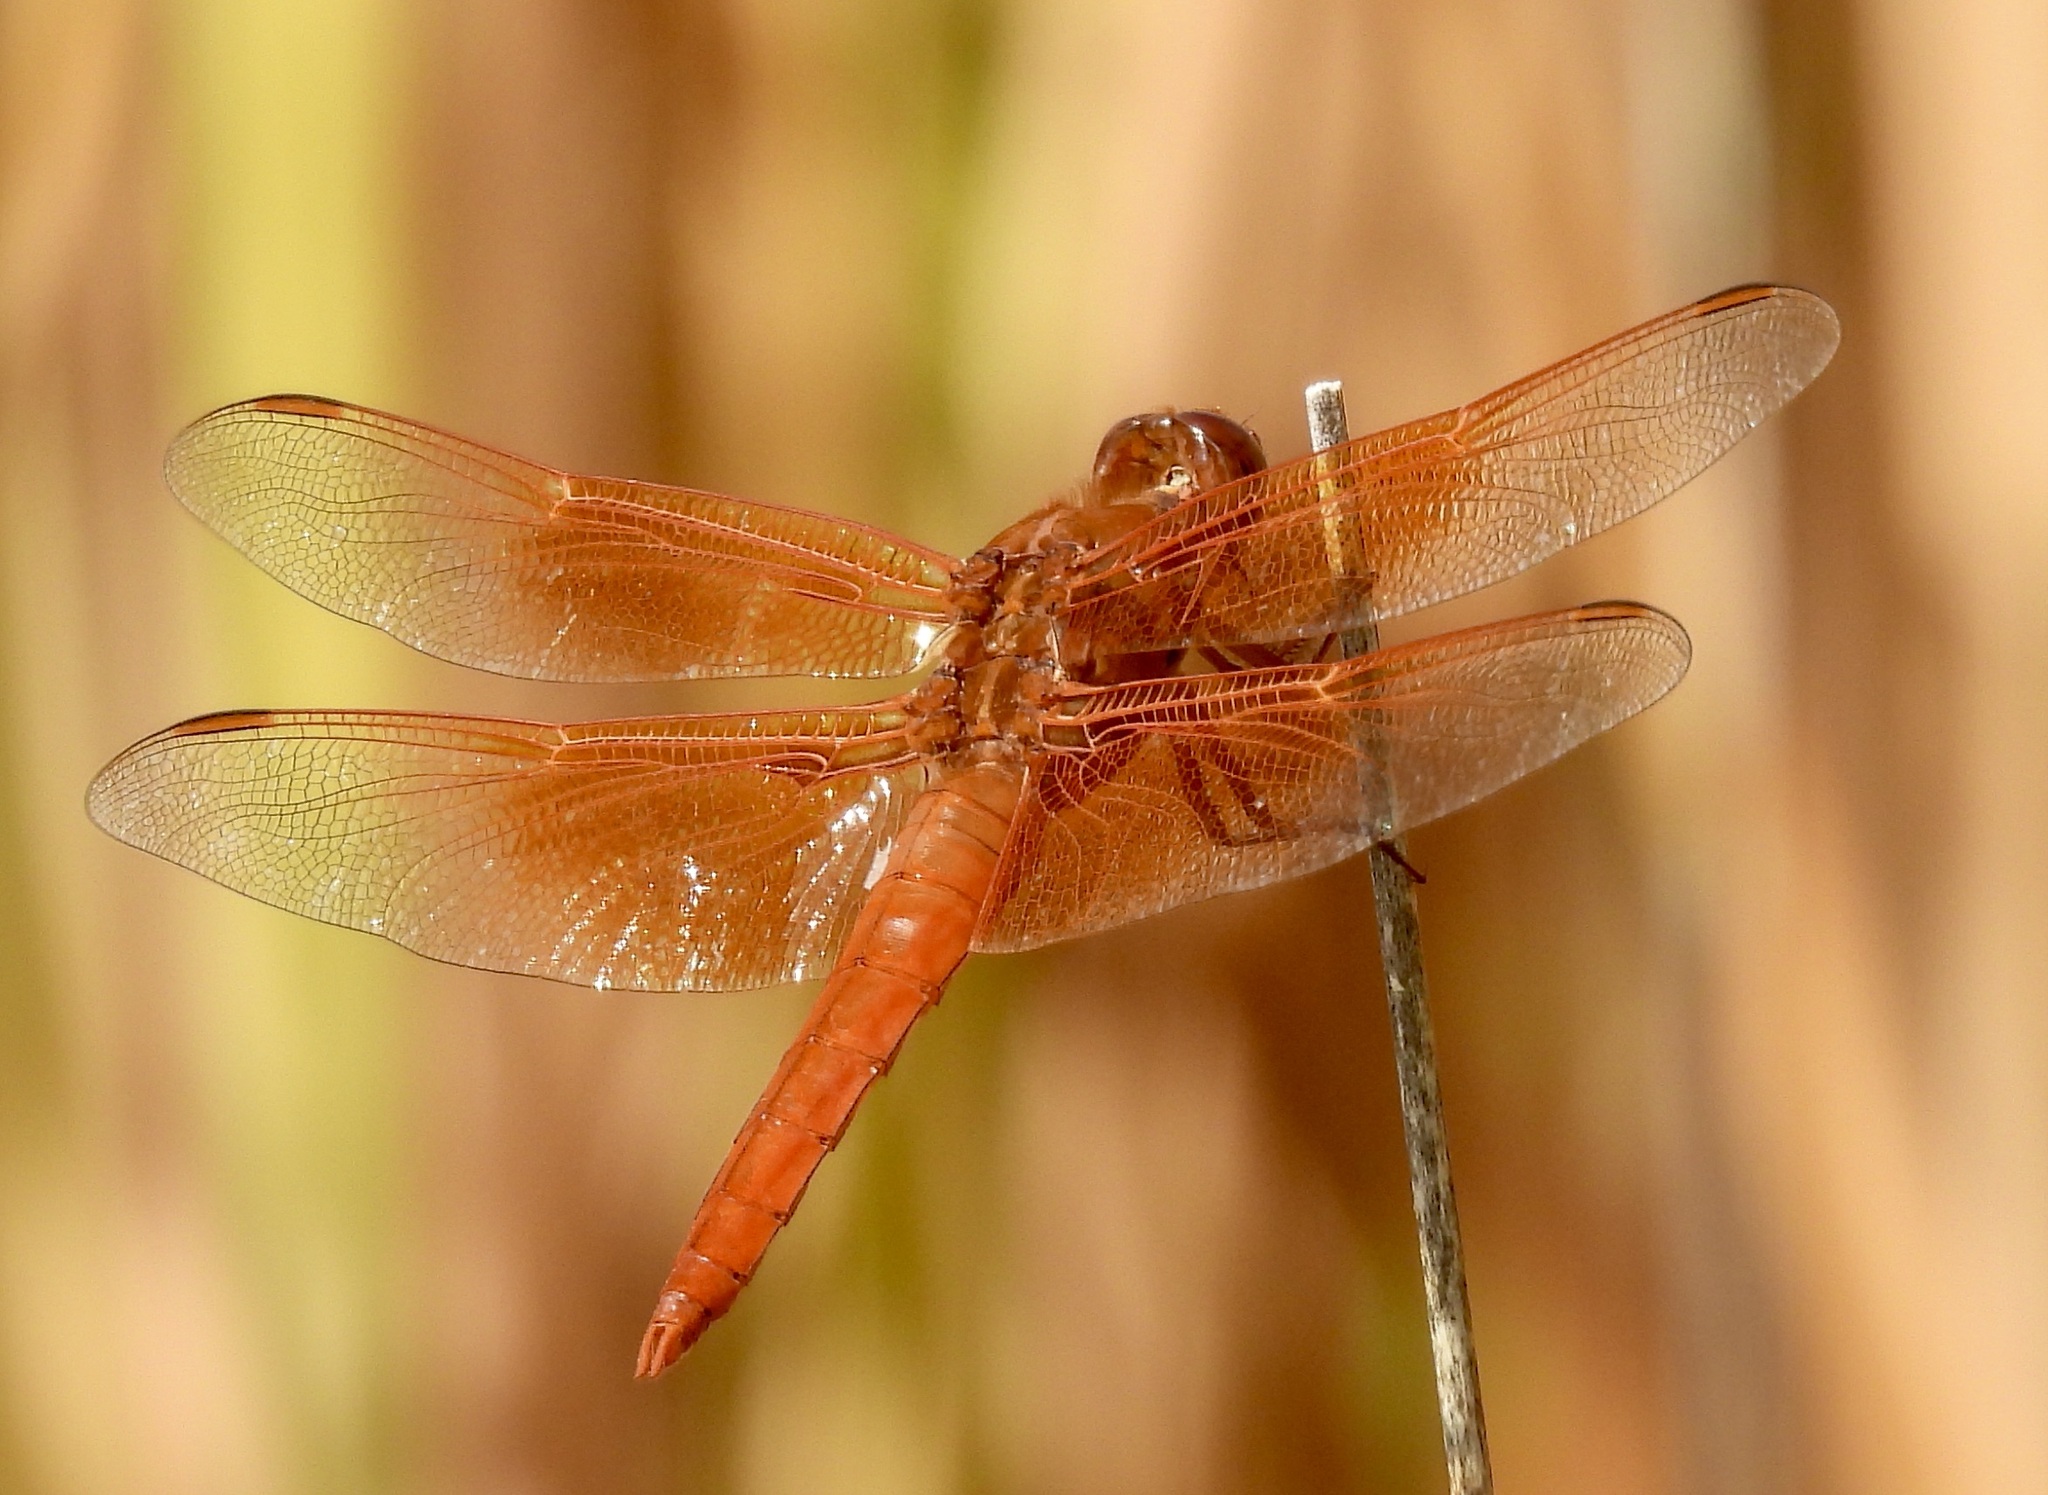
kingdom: Animalia
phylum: Arthropoda
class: Insecta
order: Odonata
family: Libellulidae
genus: Libellula
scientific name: Libellula saturata
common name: Flame skimmer
